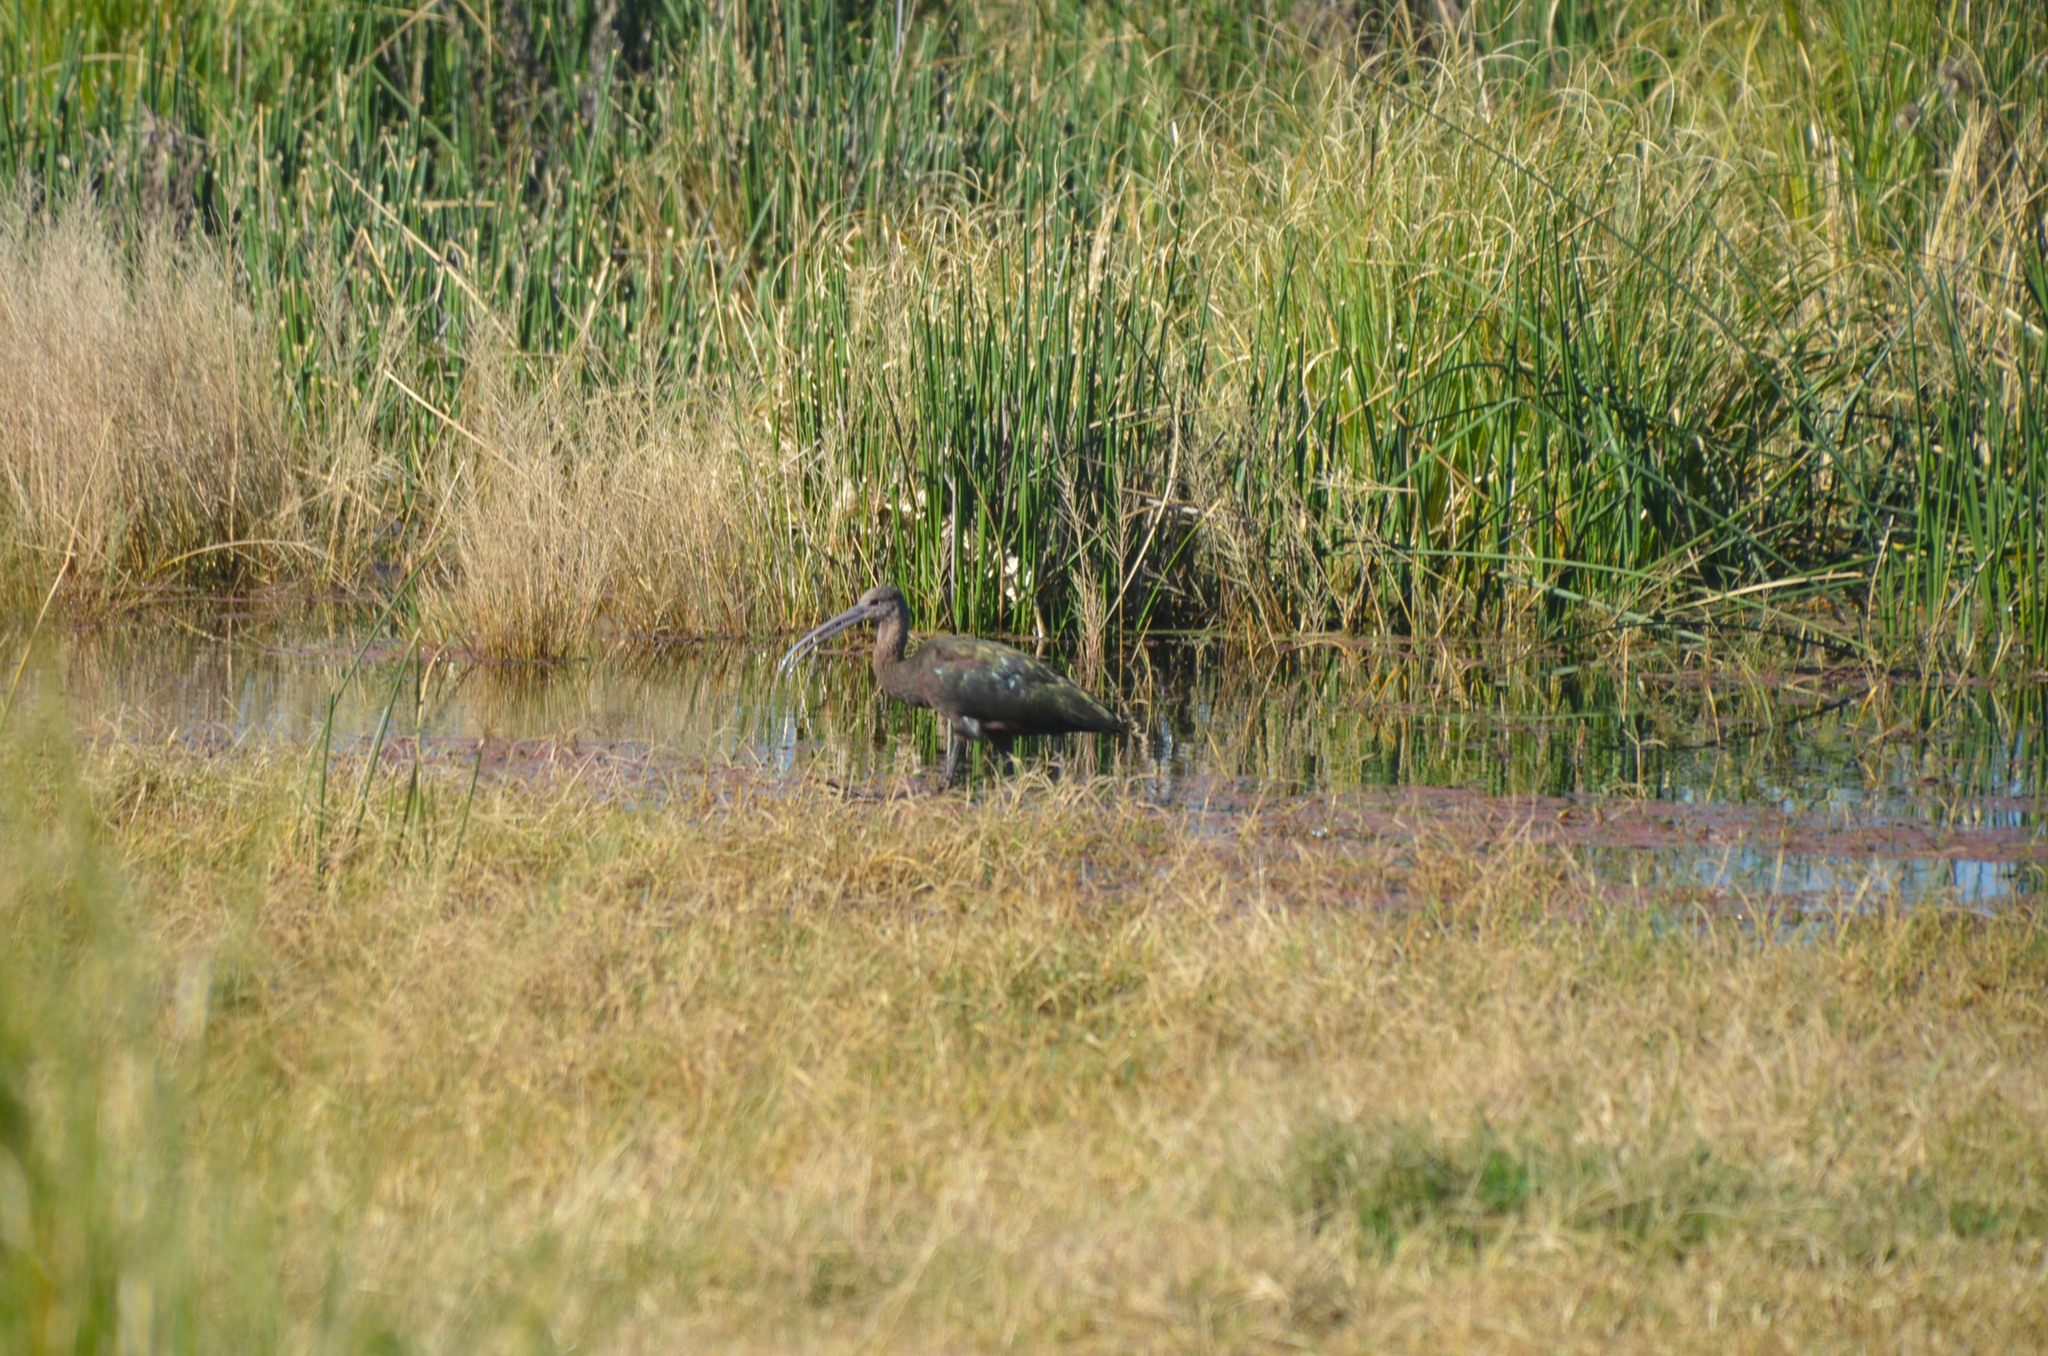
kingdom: Animalia
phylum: Chordata
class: Aves
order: Pelecaniformes
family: Threskiornithidae
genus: Plegadis
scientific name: Plegadis chihi
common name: White-faced ibis
